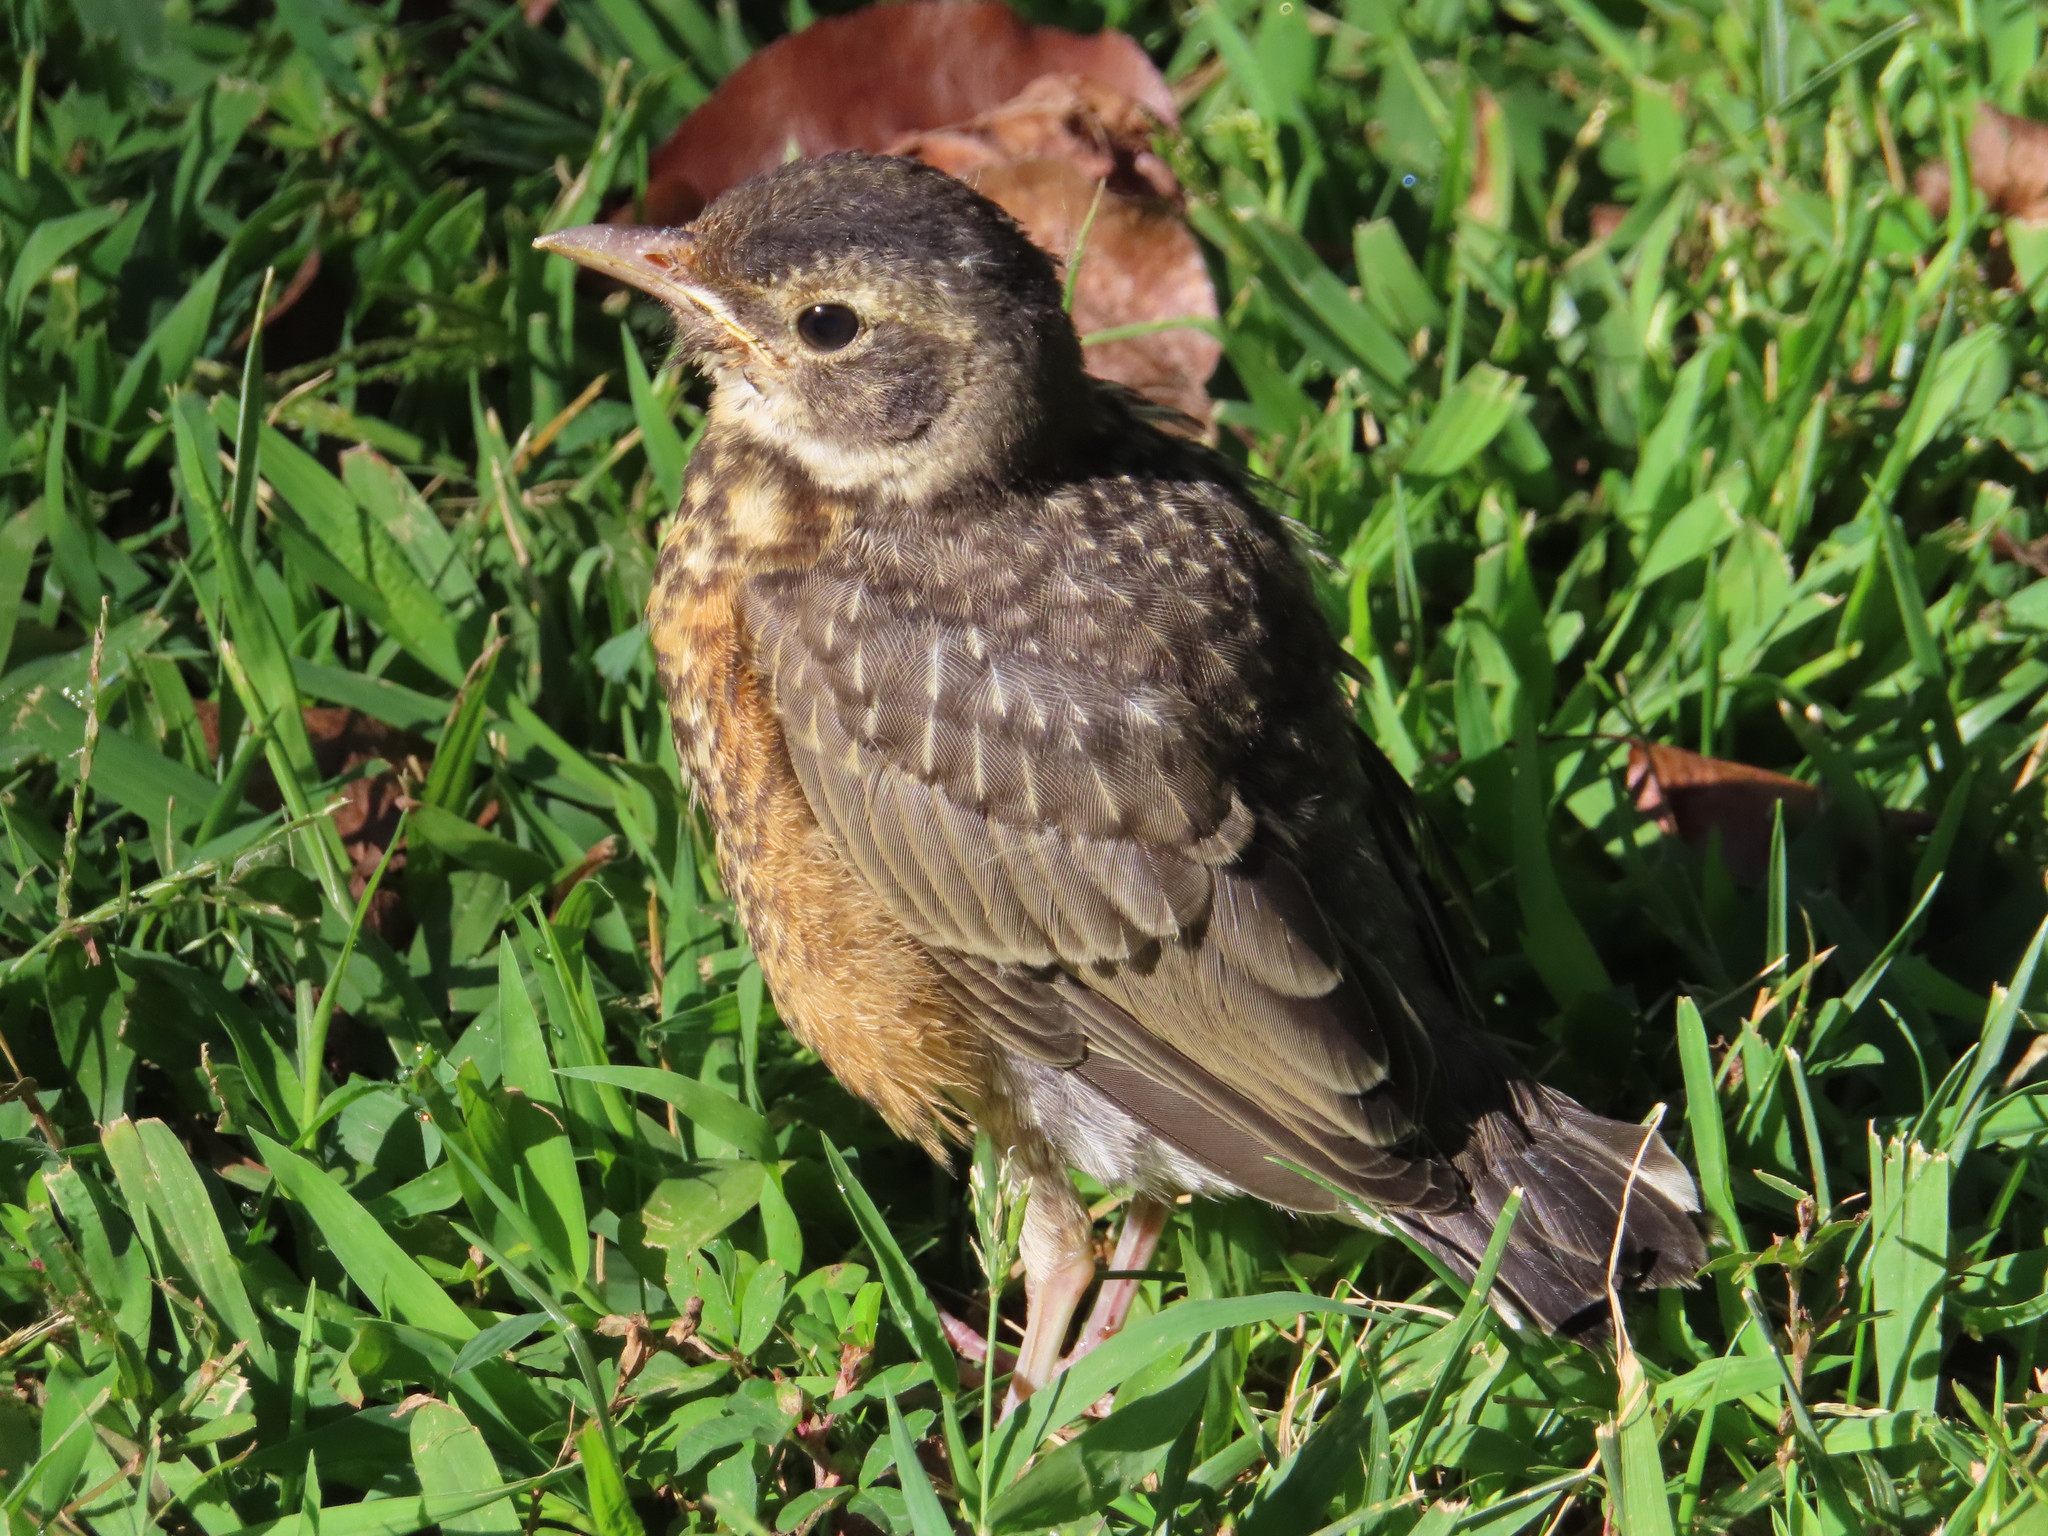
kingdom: Animalia
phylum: Chordata
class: Aves
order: Passeriformes
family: Turdidae
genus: Turdus
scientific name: Turdus migratorius
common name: American robin
